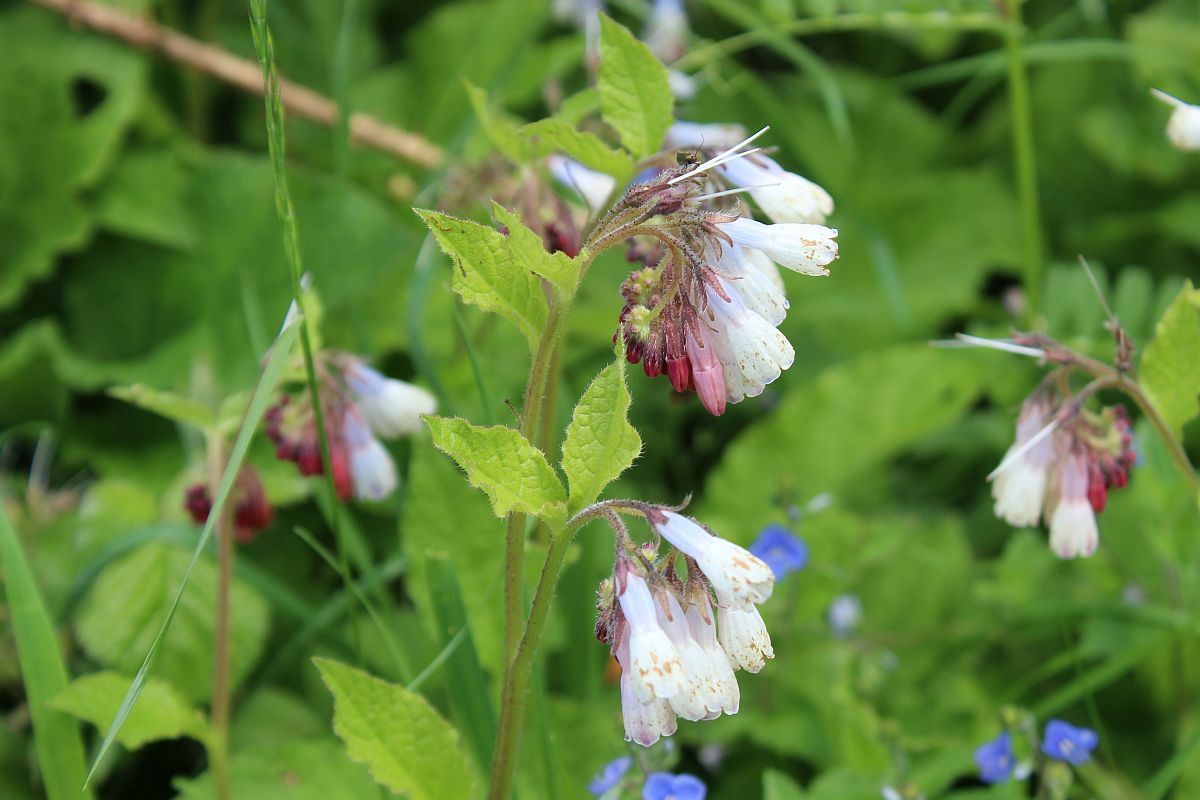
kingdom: Plantae
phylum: Tracheophyta
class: Magnoliopsida
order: Boraginales
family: Boraginaceae
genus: Symphytum
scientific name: Symphytum hidcotense
